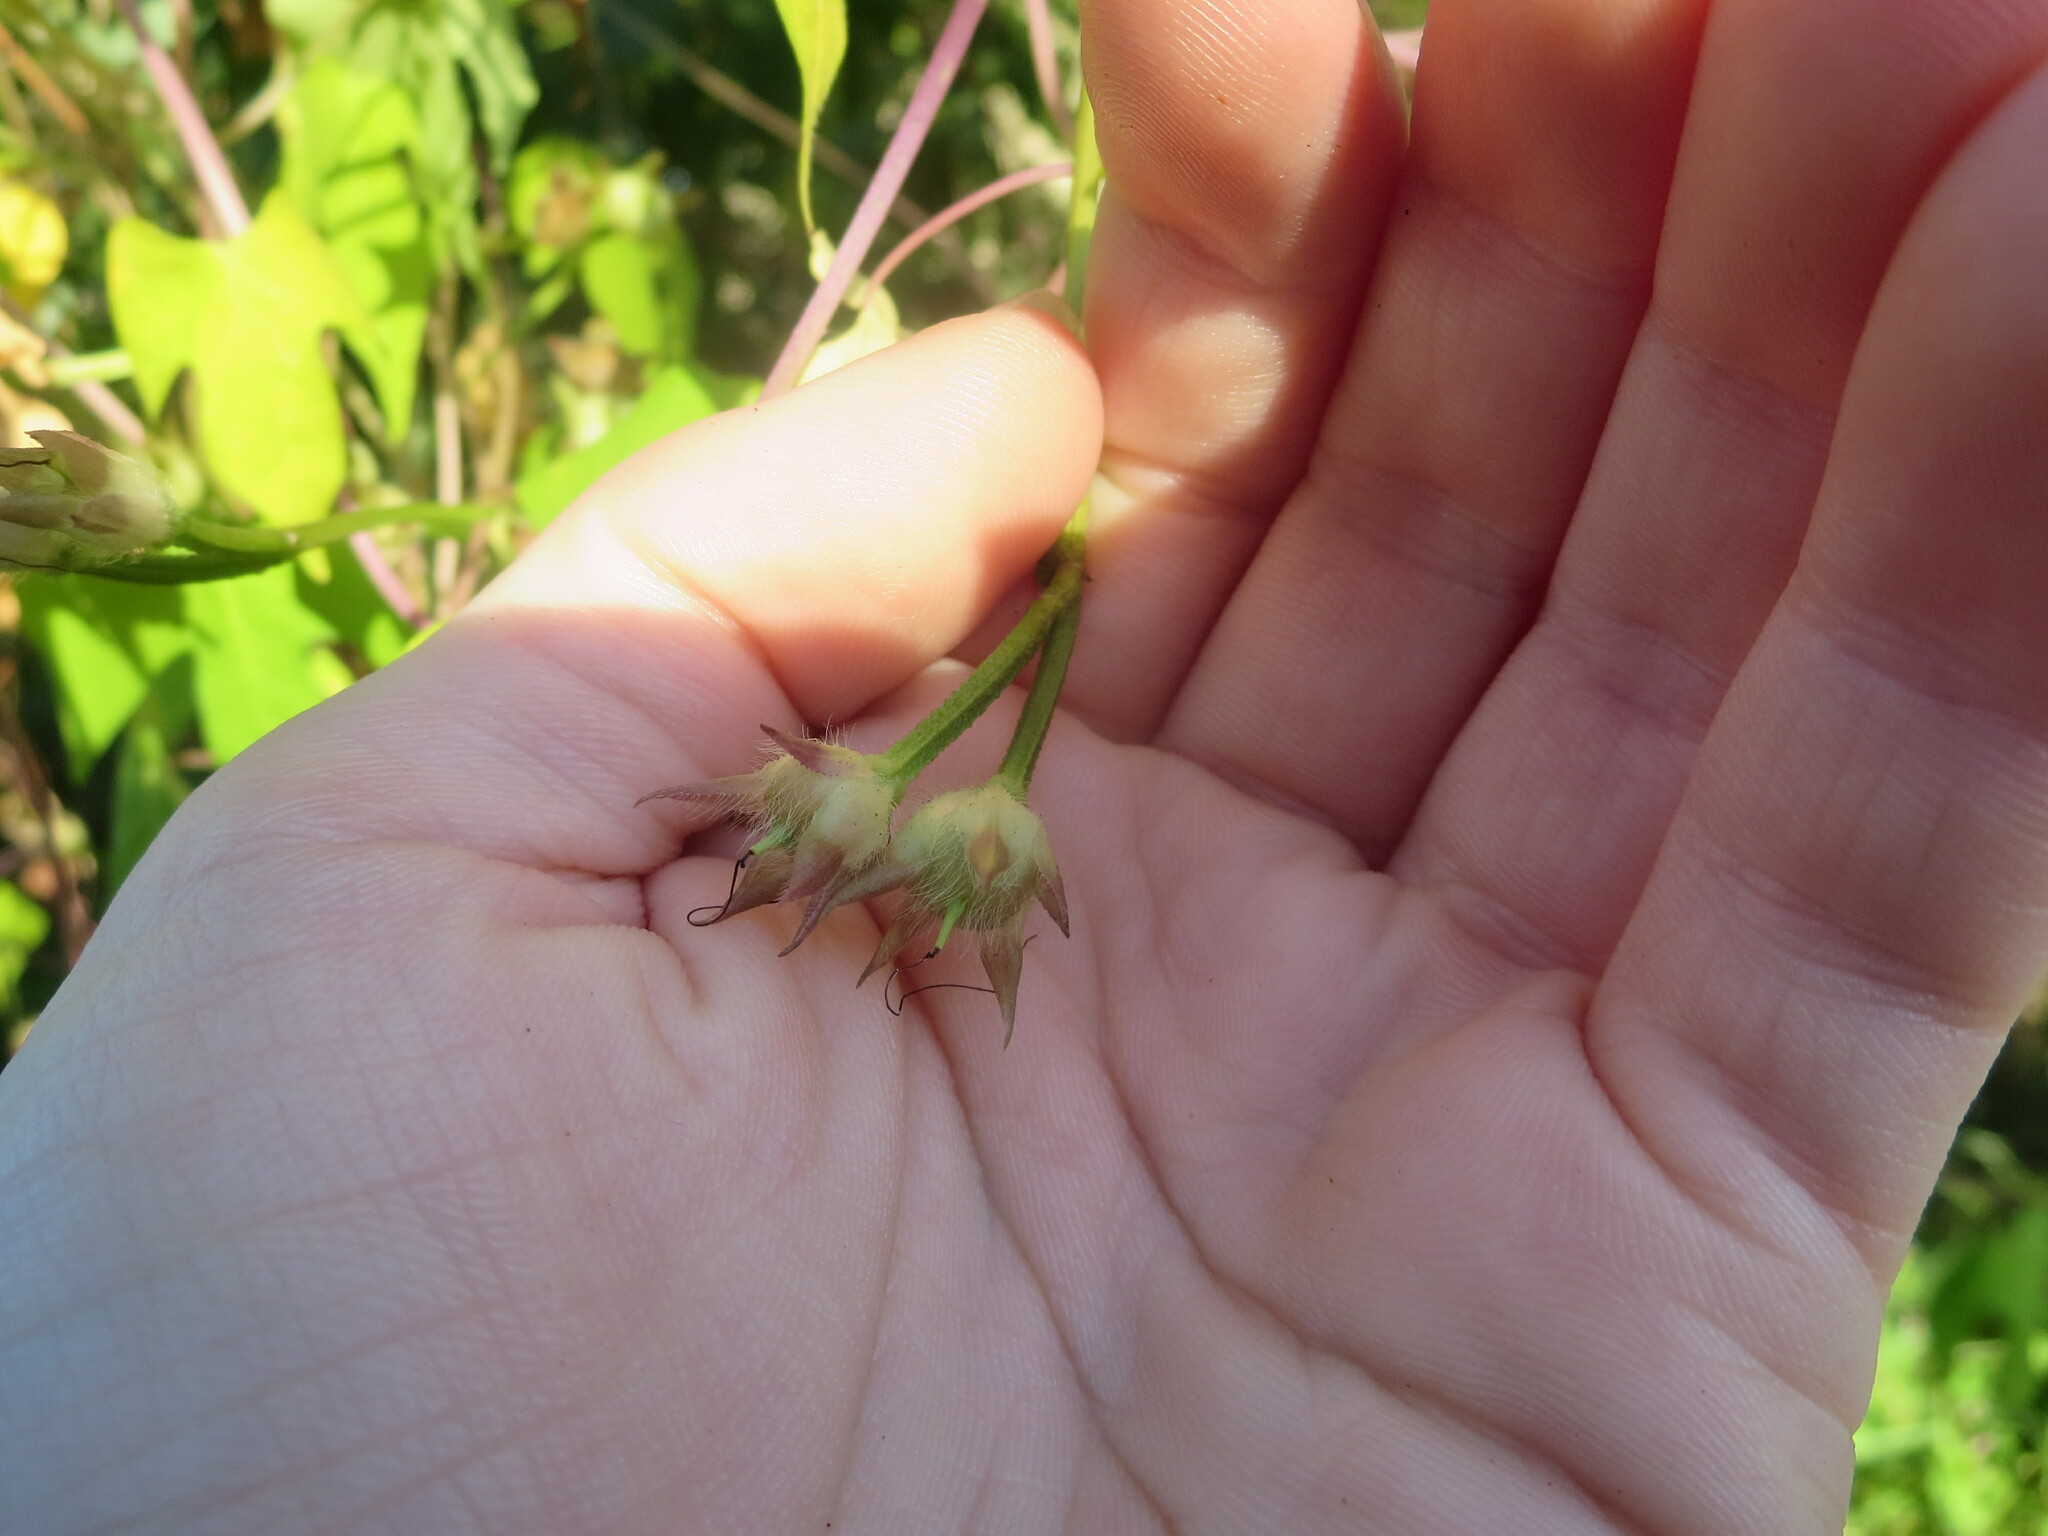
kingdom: Plantae
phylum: Tracheophyta
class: Magnoliopsida
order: Solanales
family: Convolvulaceae
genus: Ipomoea
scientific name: Ipomoea cordatotriloba
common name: Cotton morning glory
